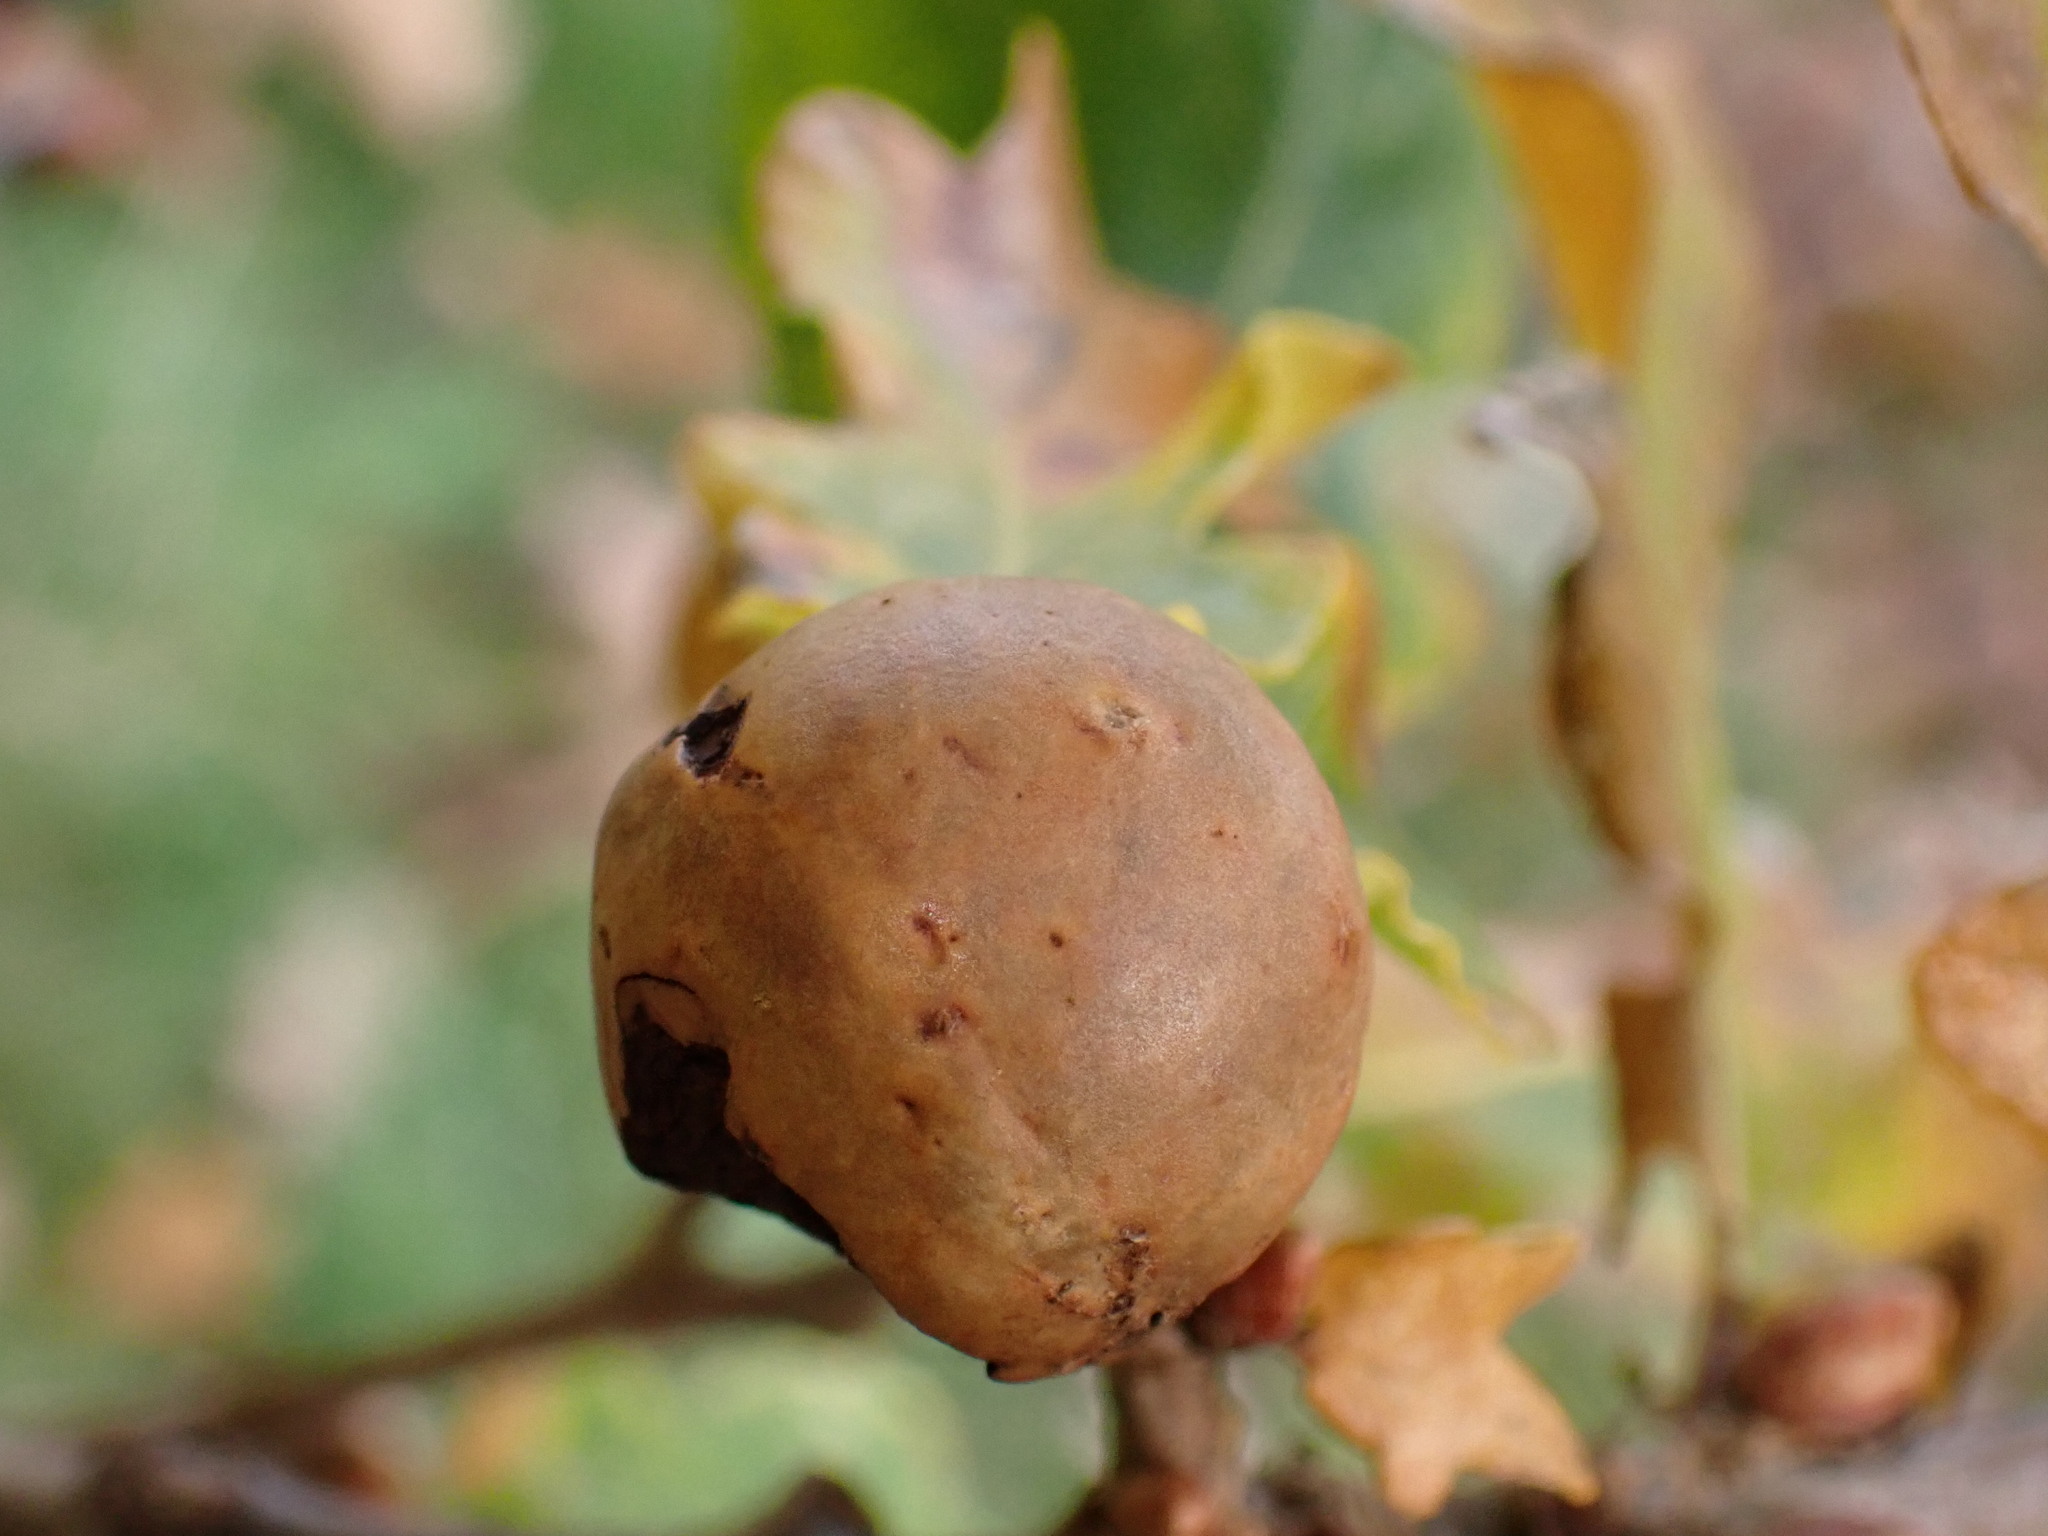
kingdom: Animalia
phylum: Arthropoda
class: Insecta
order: Hymenoptera
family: Cynipidae
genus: Andricus
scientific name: Andricus kollari
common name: Marble gall
